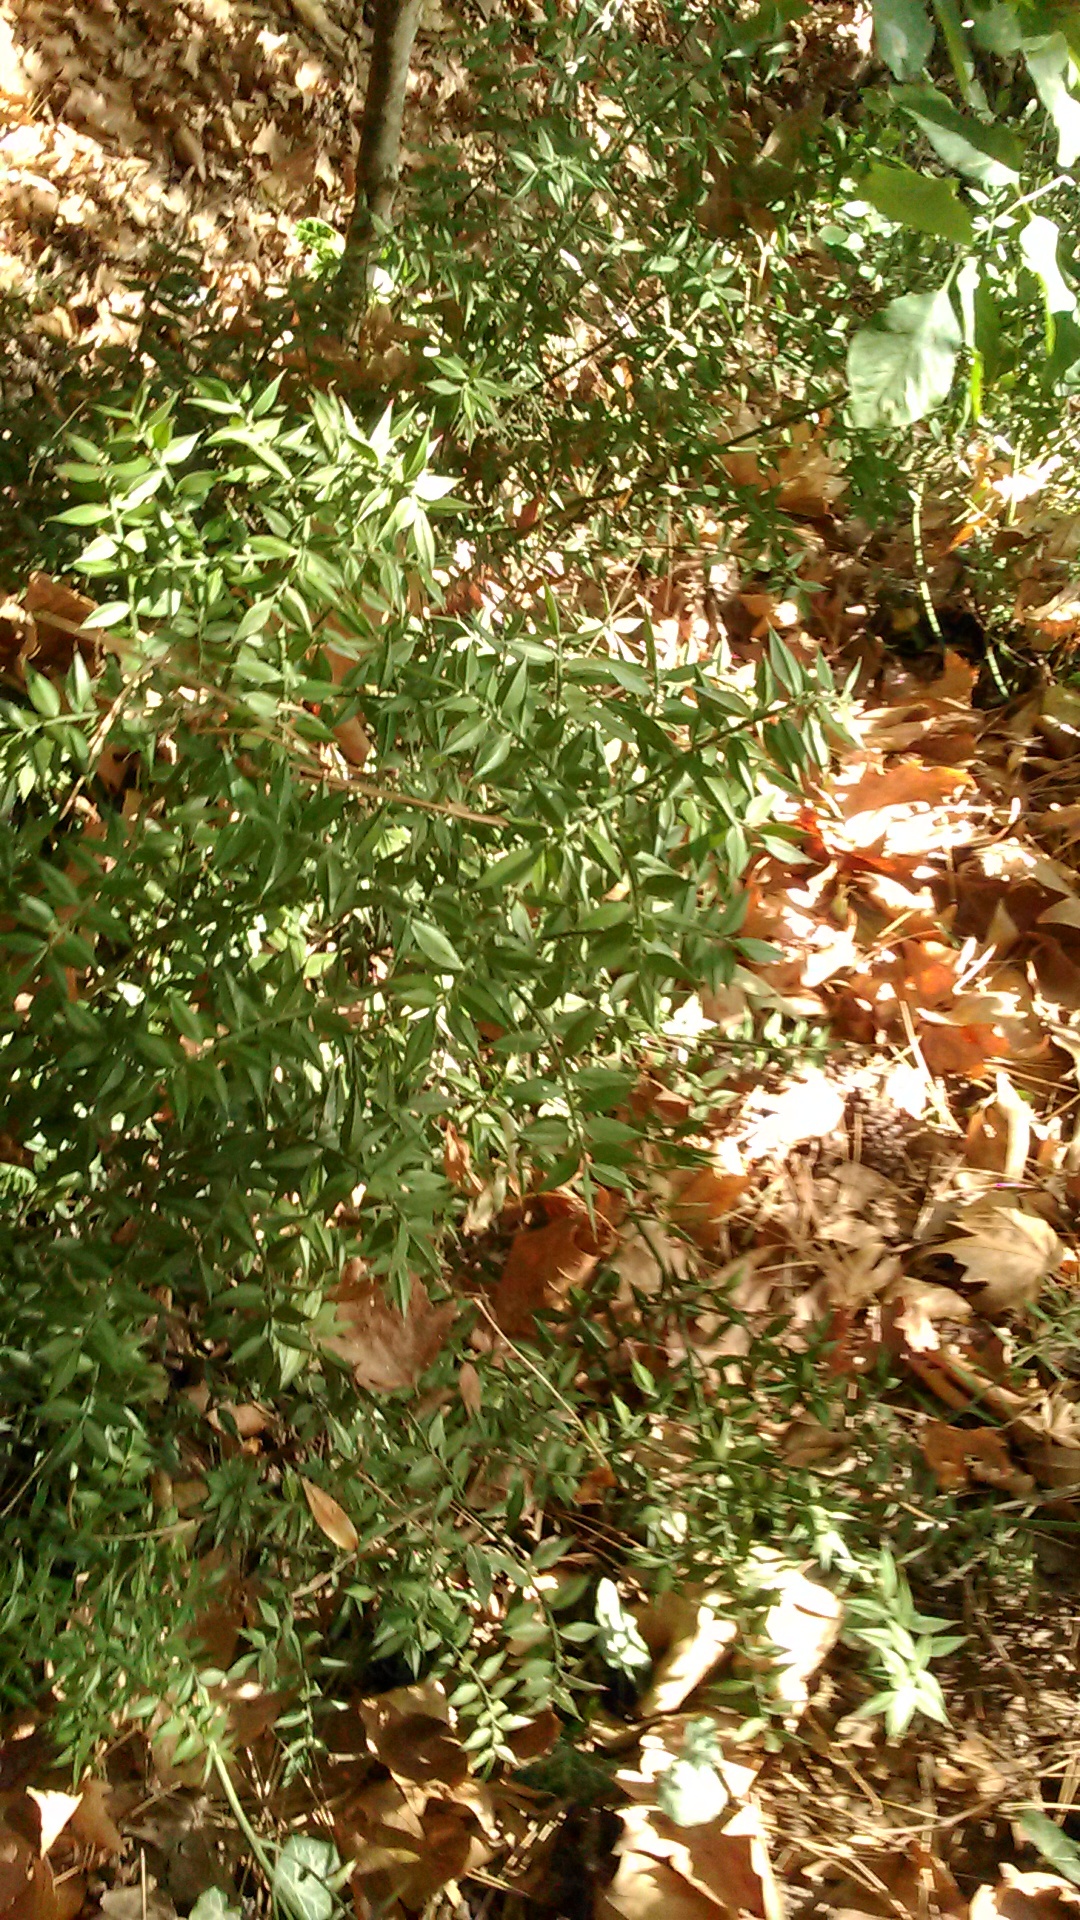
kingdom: Plantae
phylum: Tracheophyta
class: Liliopsida
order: Asparagales
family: Asparagaceae
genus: Ruscus
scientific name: Ruscus aculeatus
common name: Butcher's-broom
